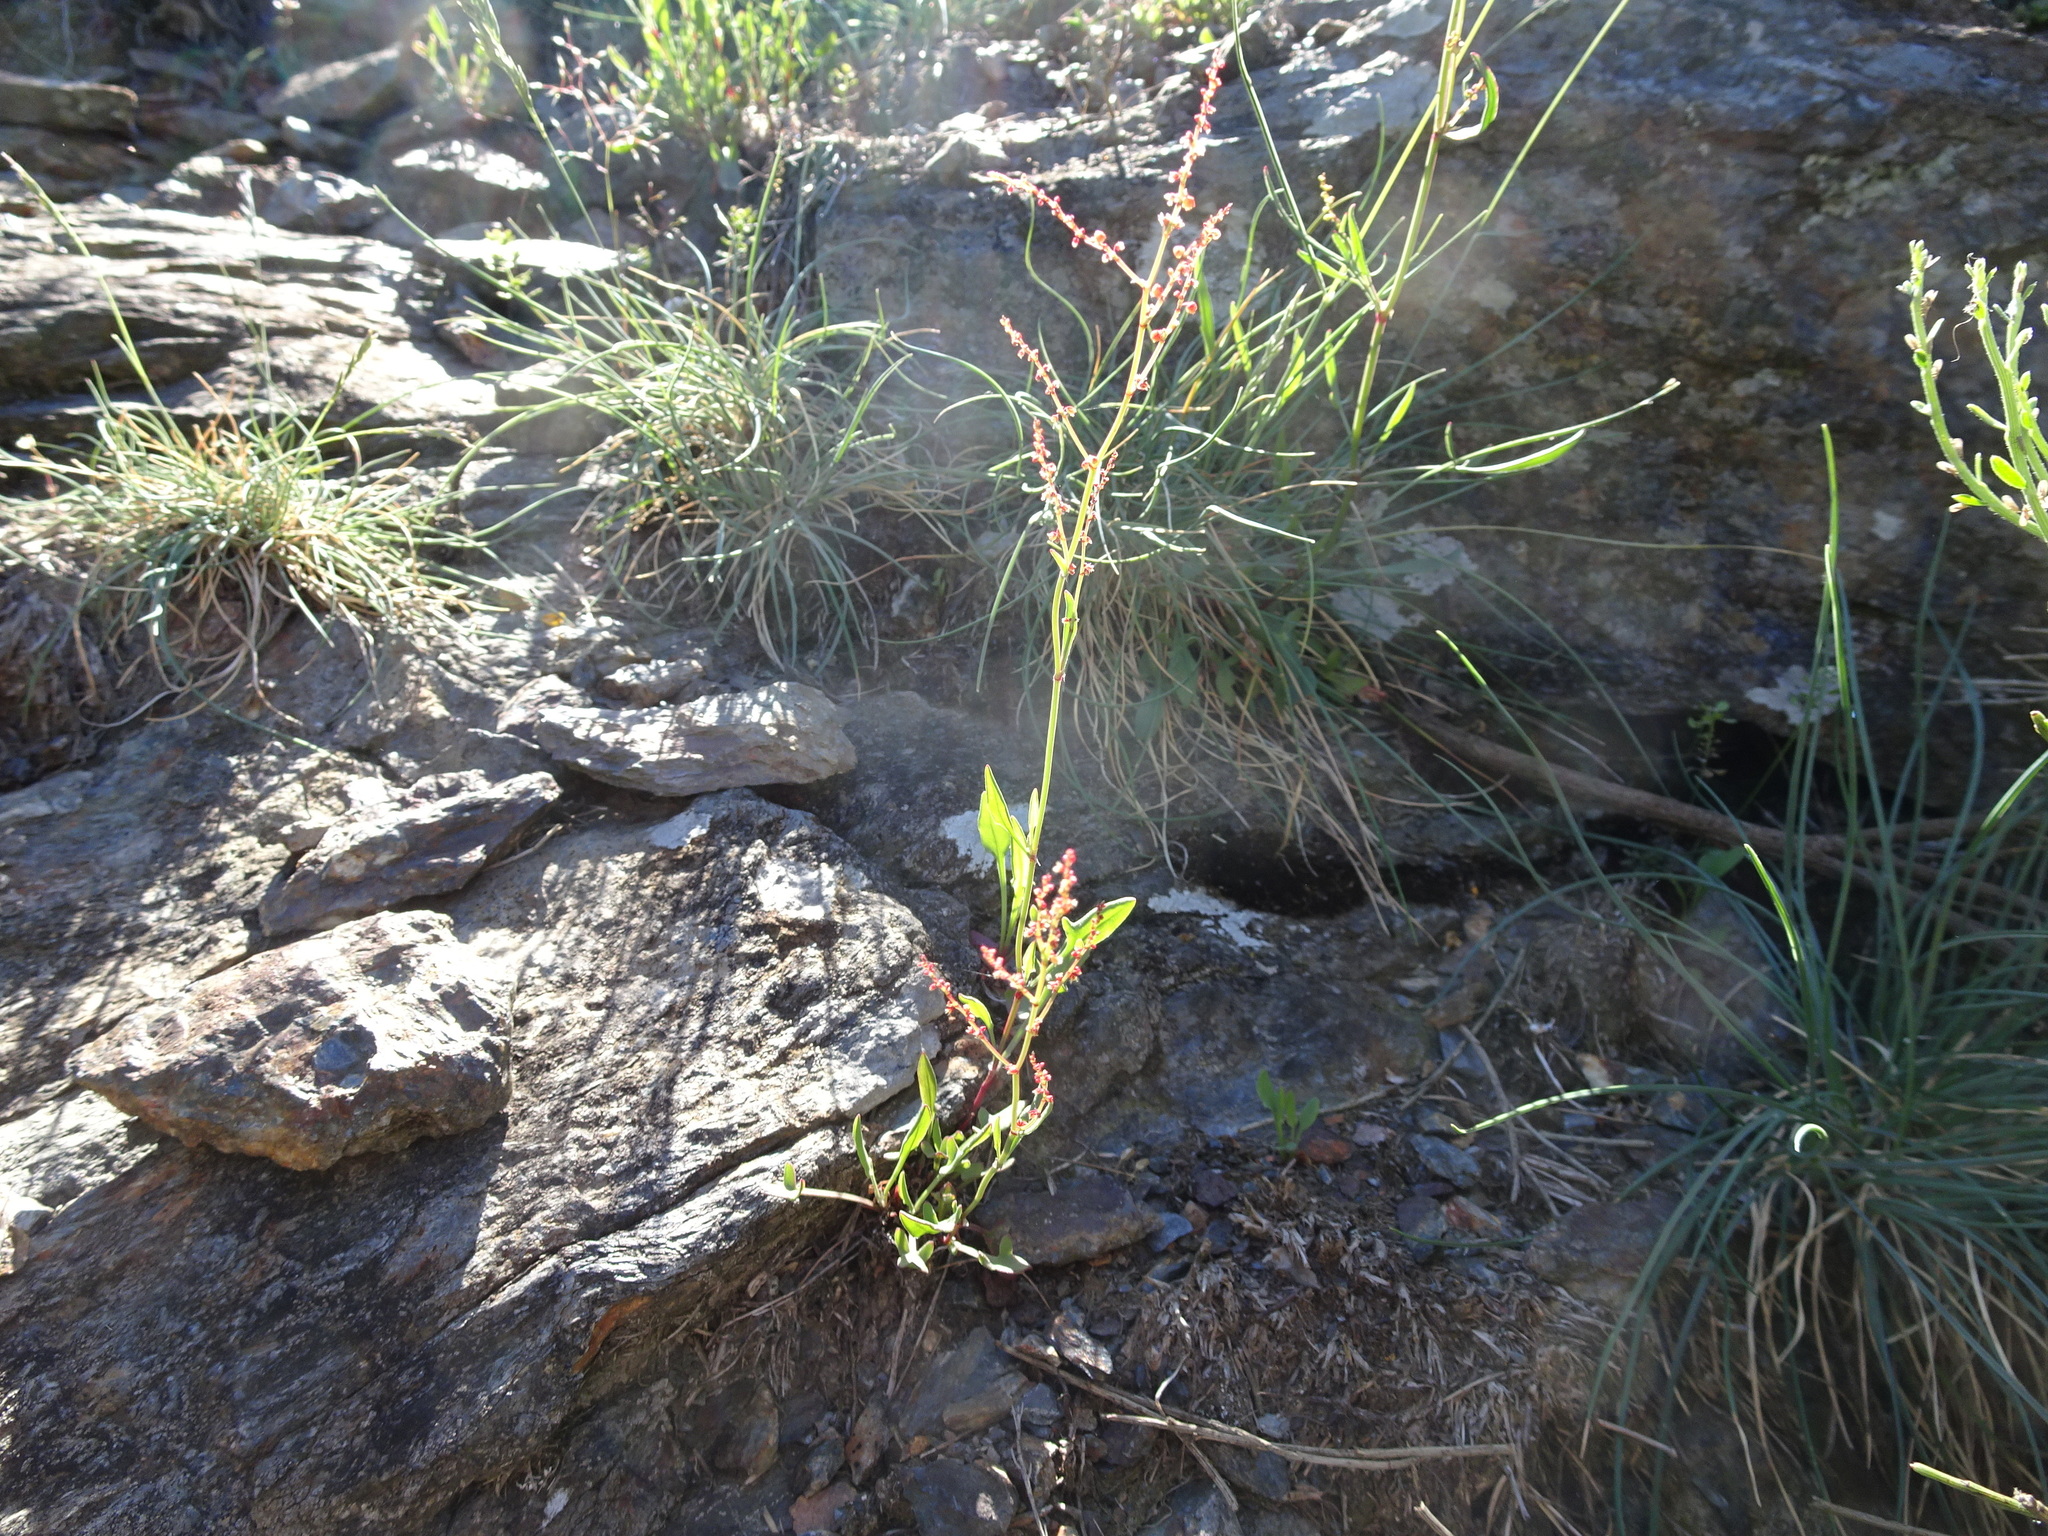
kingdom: Plantae
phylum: Tracheophyta
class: Magnoliopsida
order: Caryophyllales
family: Polygonaceae
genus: Rumex
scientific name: Rumex acetosella
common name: Common sheep sorrel
